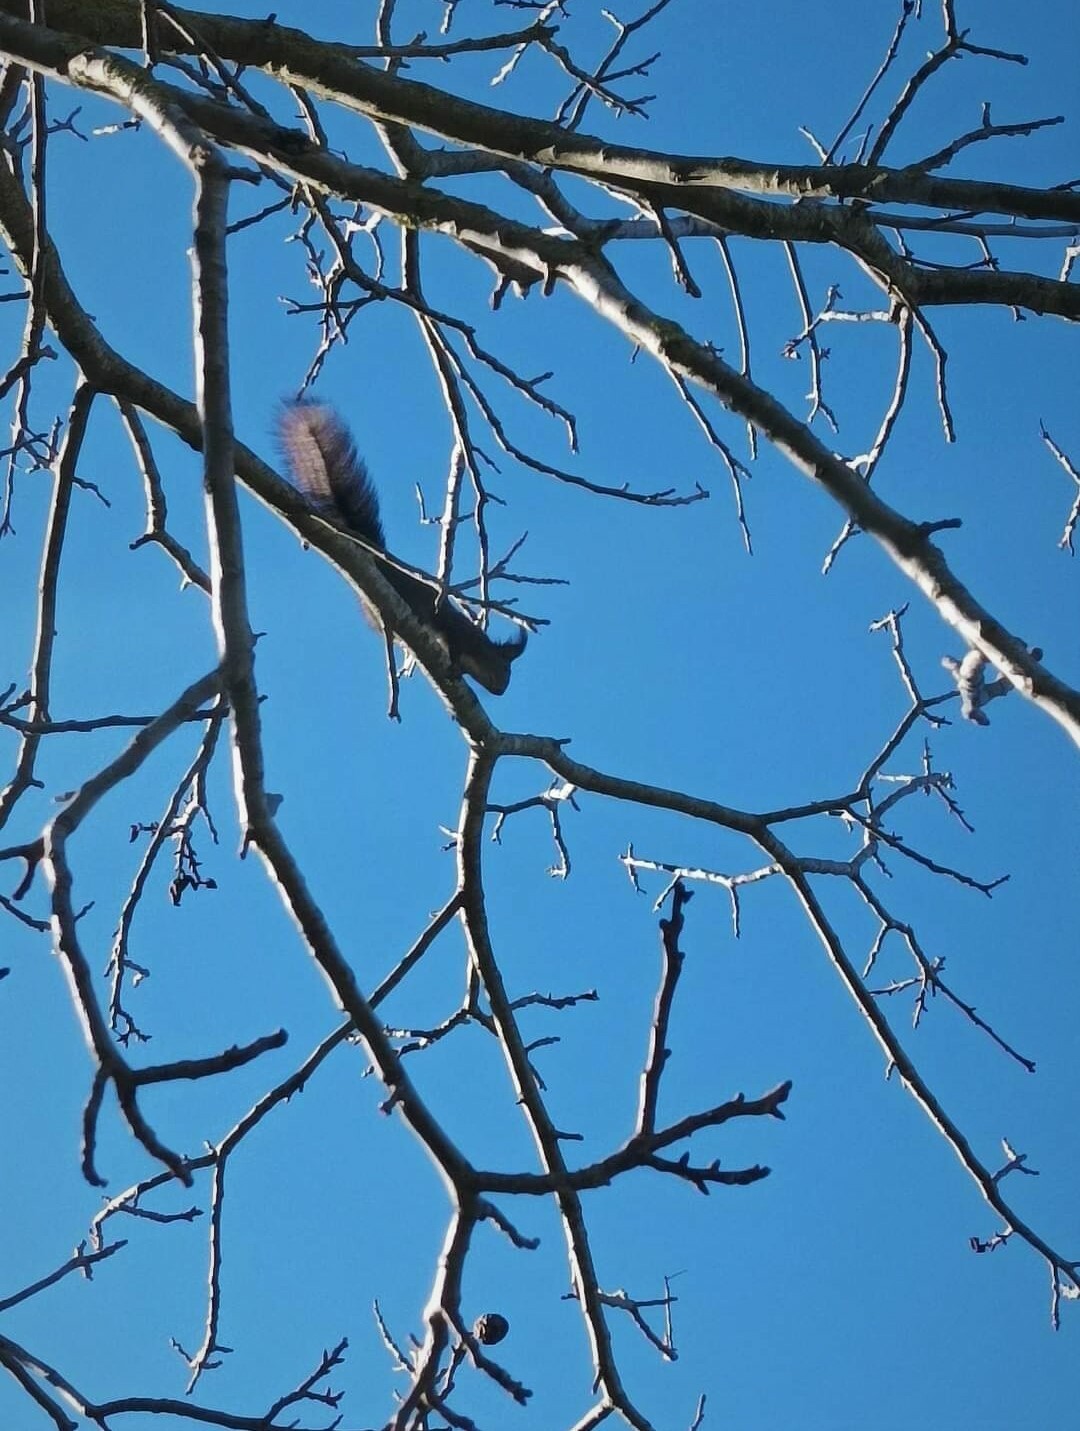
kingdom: Animalia
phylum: Chordata
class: Mammalia
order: Rodentia
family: Sciuridae
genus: Sciurus
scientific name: Sciurus vulgaris
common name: Eurasian red squirrel
